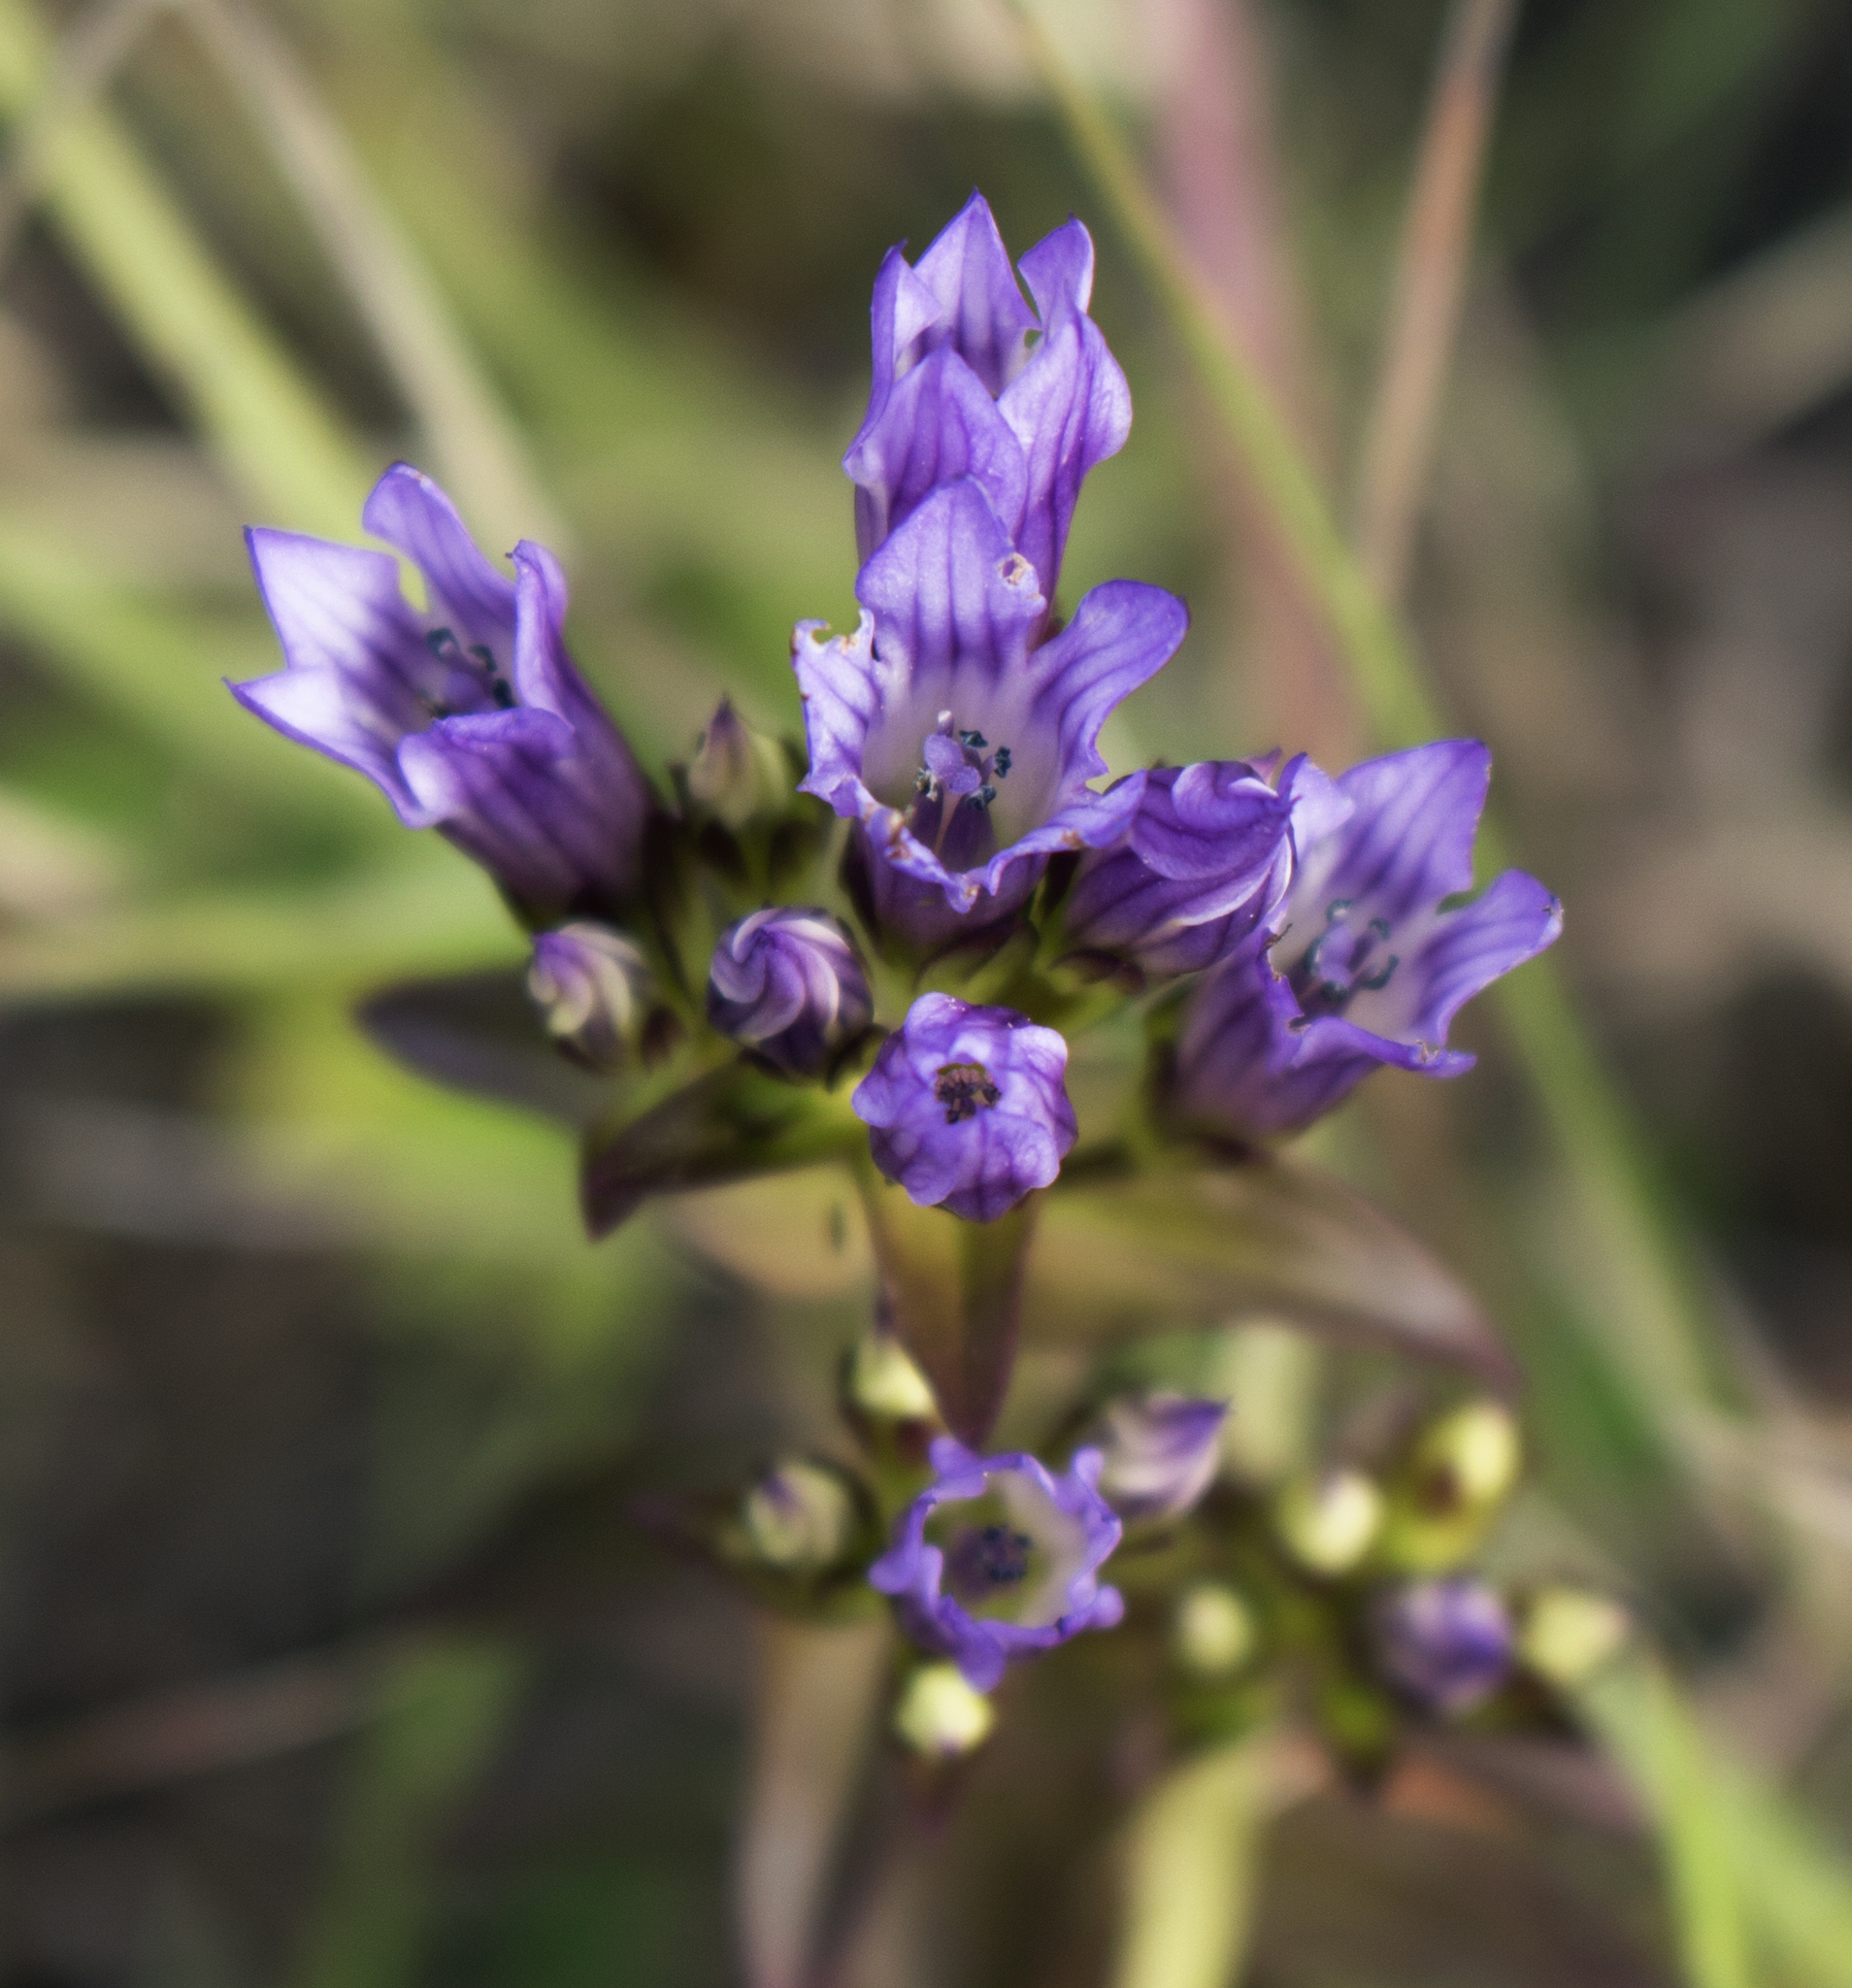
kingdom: Plantae
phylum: Tracheophyta
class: Magnoliopsida
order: Gentianales
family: Gentianaceae
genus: Gentianella
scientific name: Gentianella quinquefolia
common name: Agueweed
